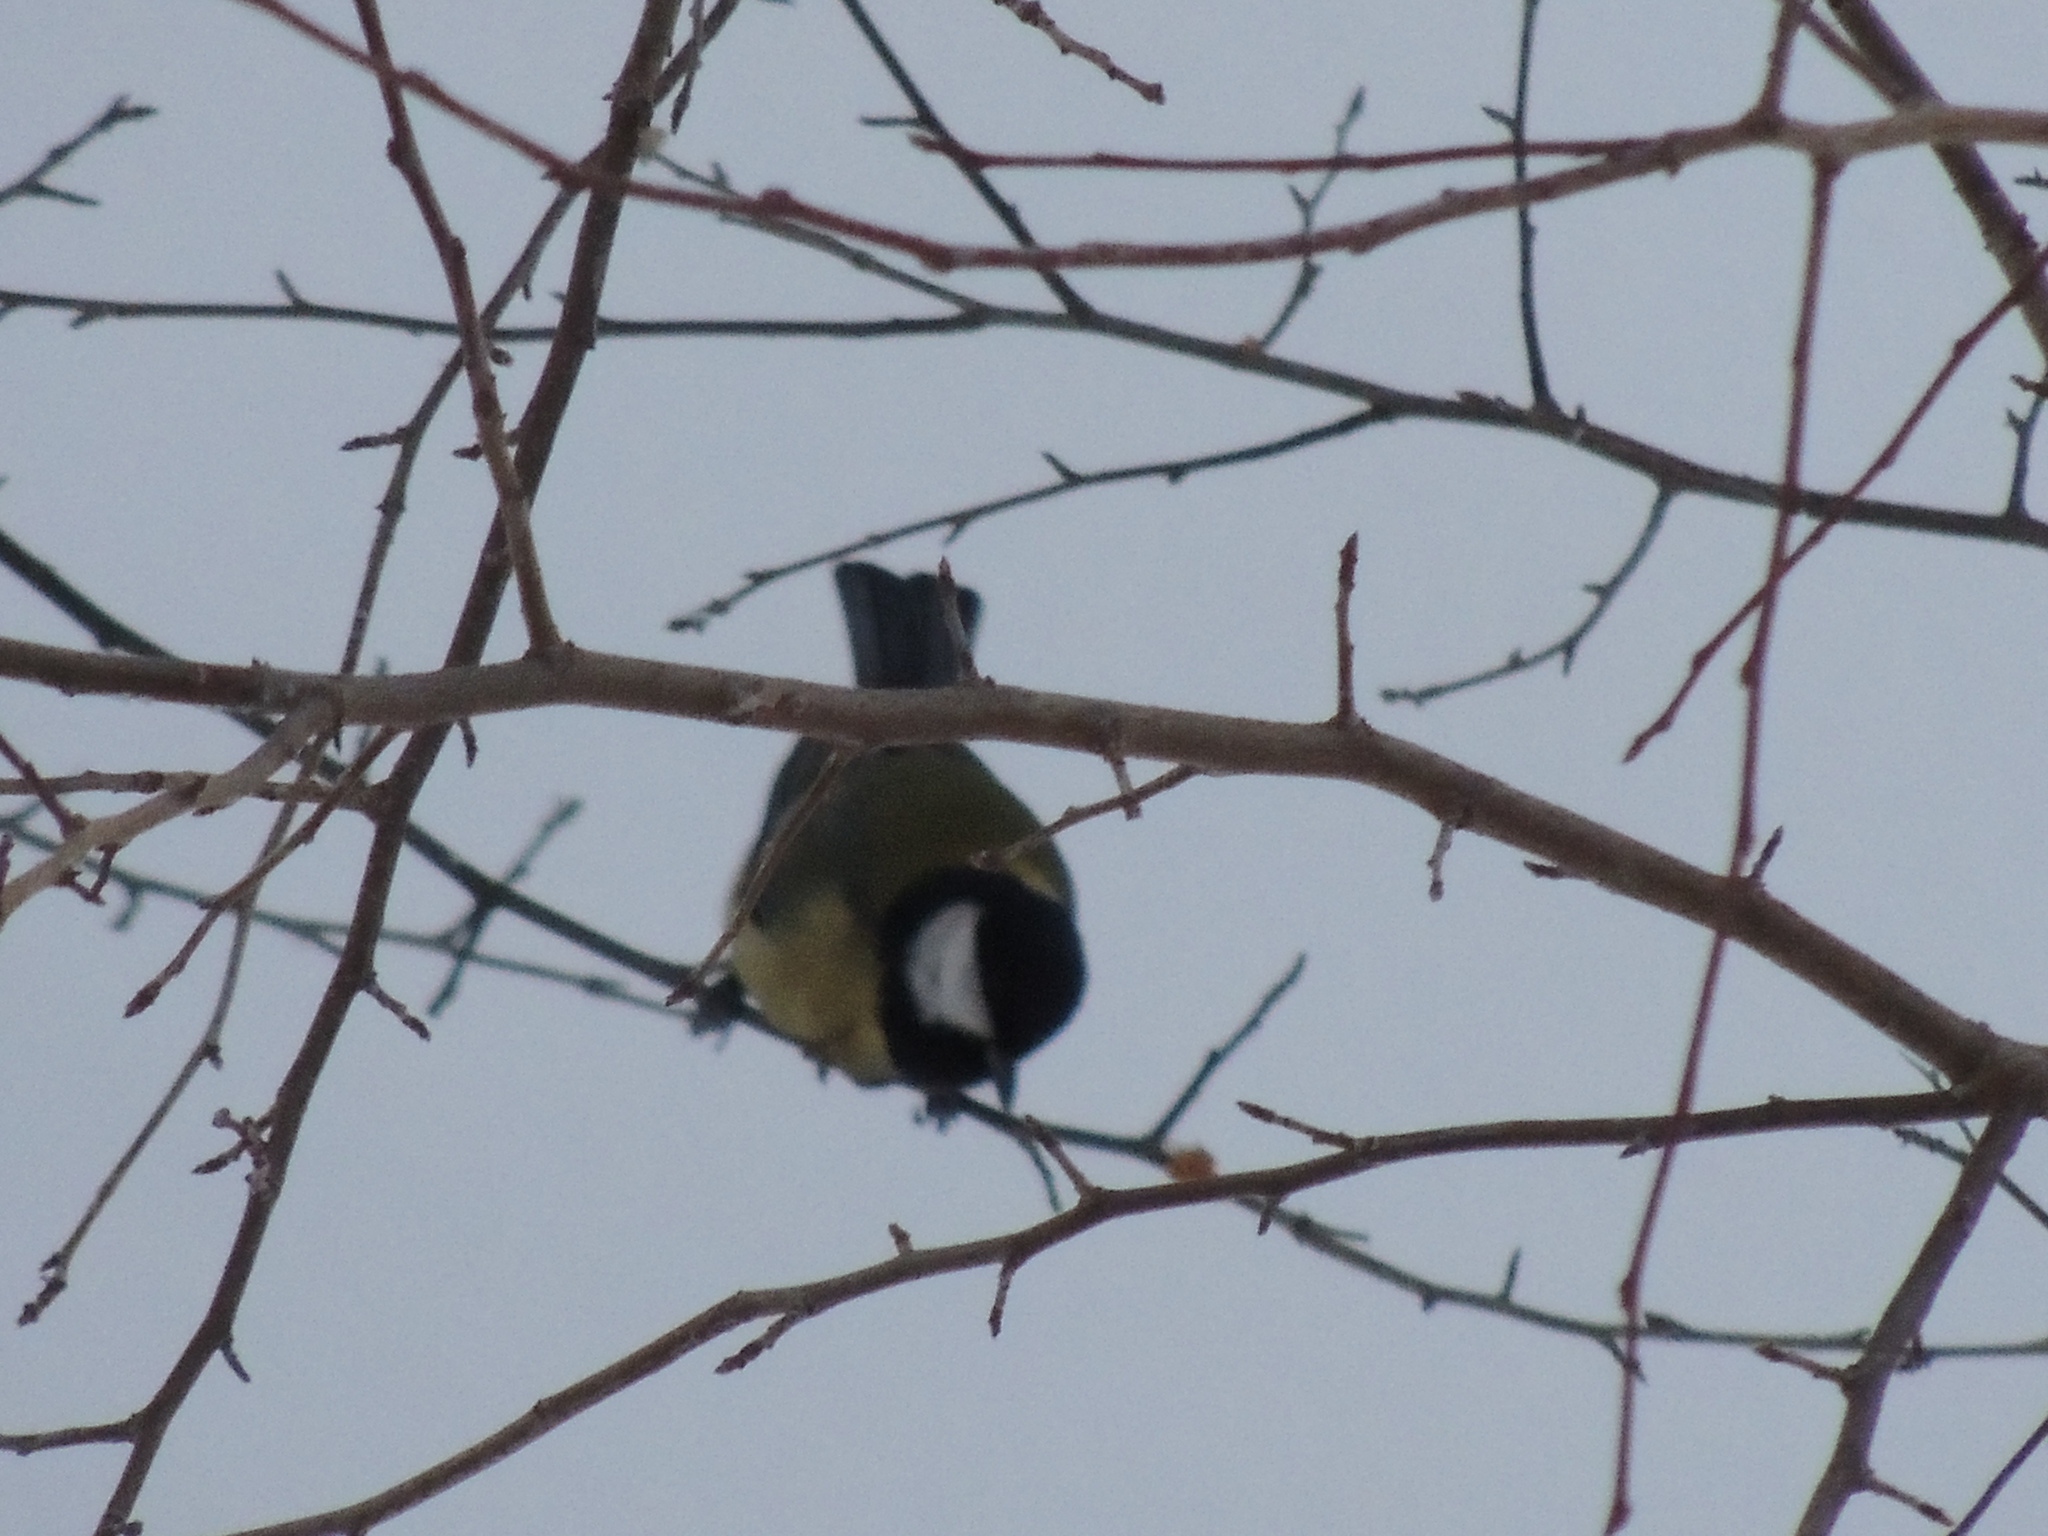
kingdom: Animalia
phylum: Chordata
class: Aves
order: Passeriformes
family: Paridae
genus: Parus
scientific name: Parus major
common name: Great tit
